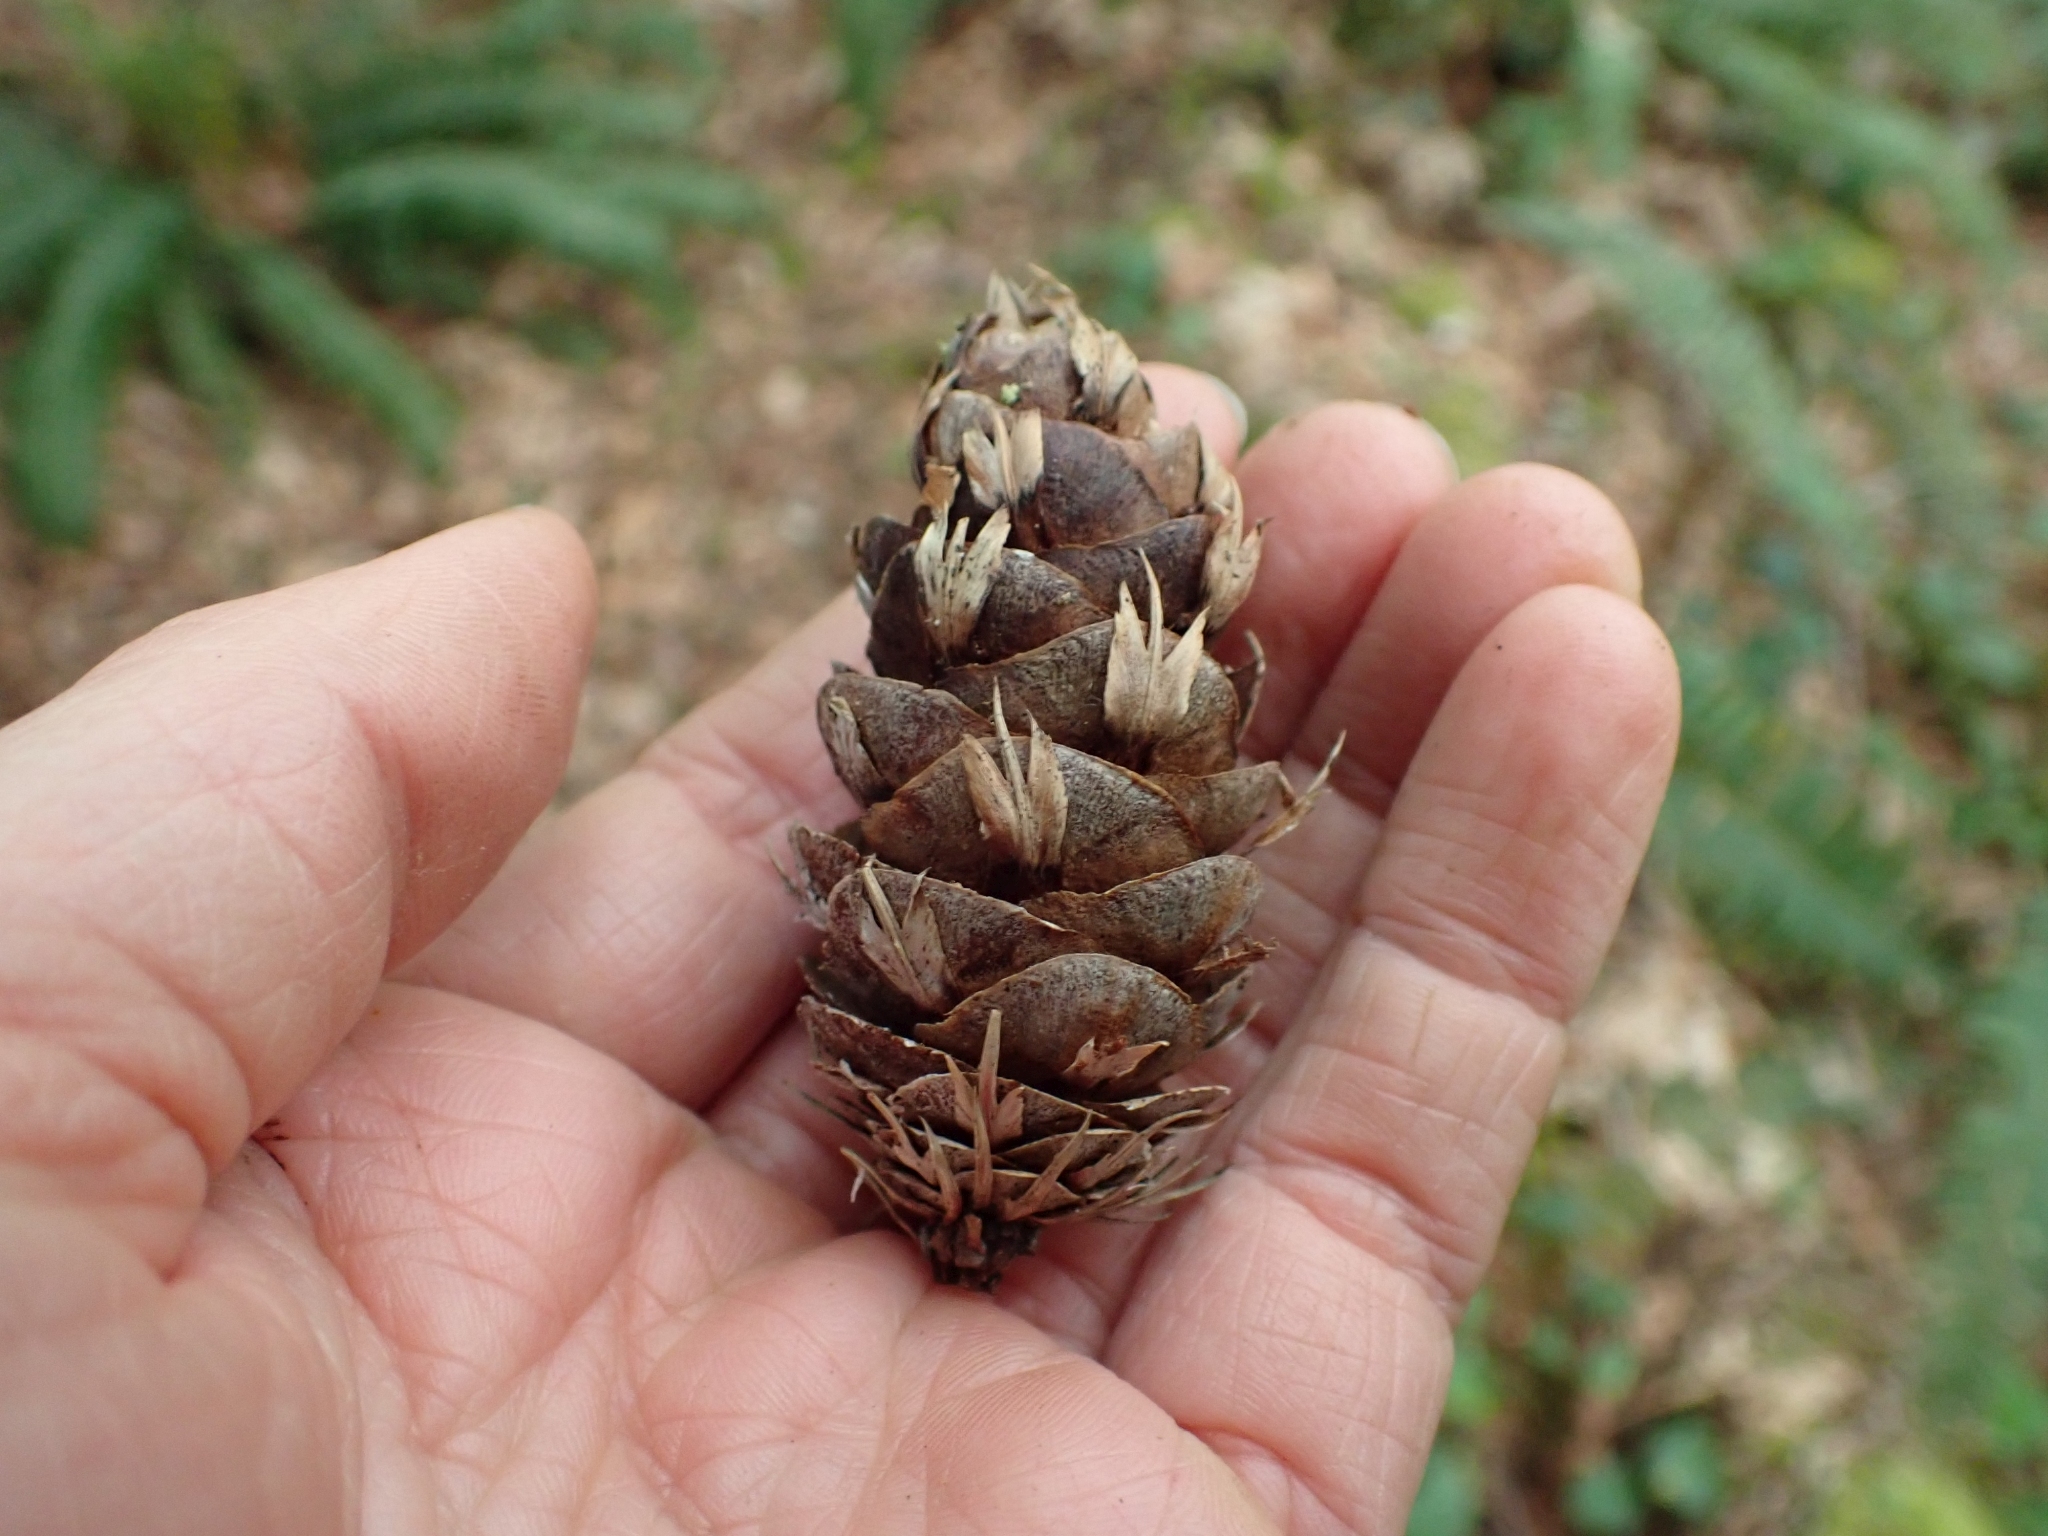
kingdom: Plantae
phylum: Tracheophyta
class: Pinopsida
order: Pinales
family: Pinaceae
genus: Pseudotsuga
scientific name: Pseudotsuga menziesii
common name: Douglas fir
